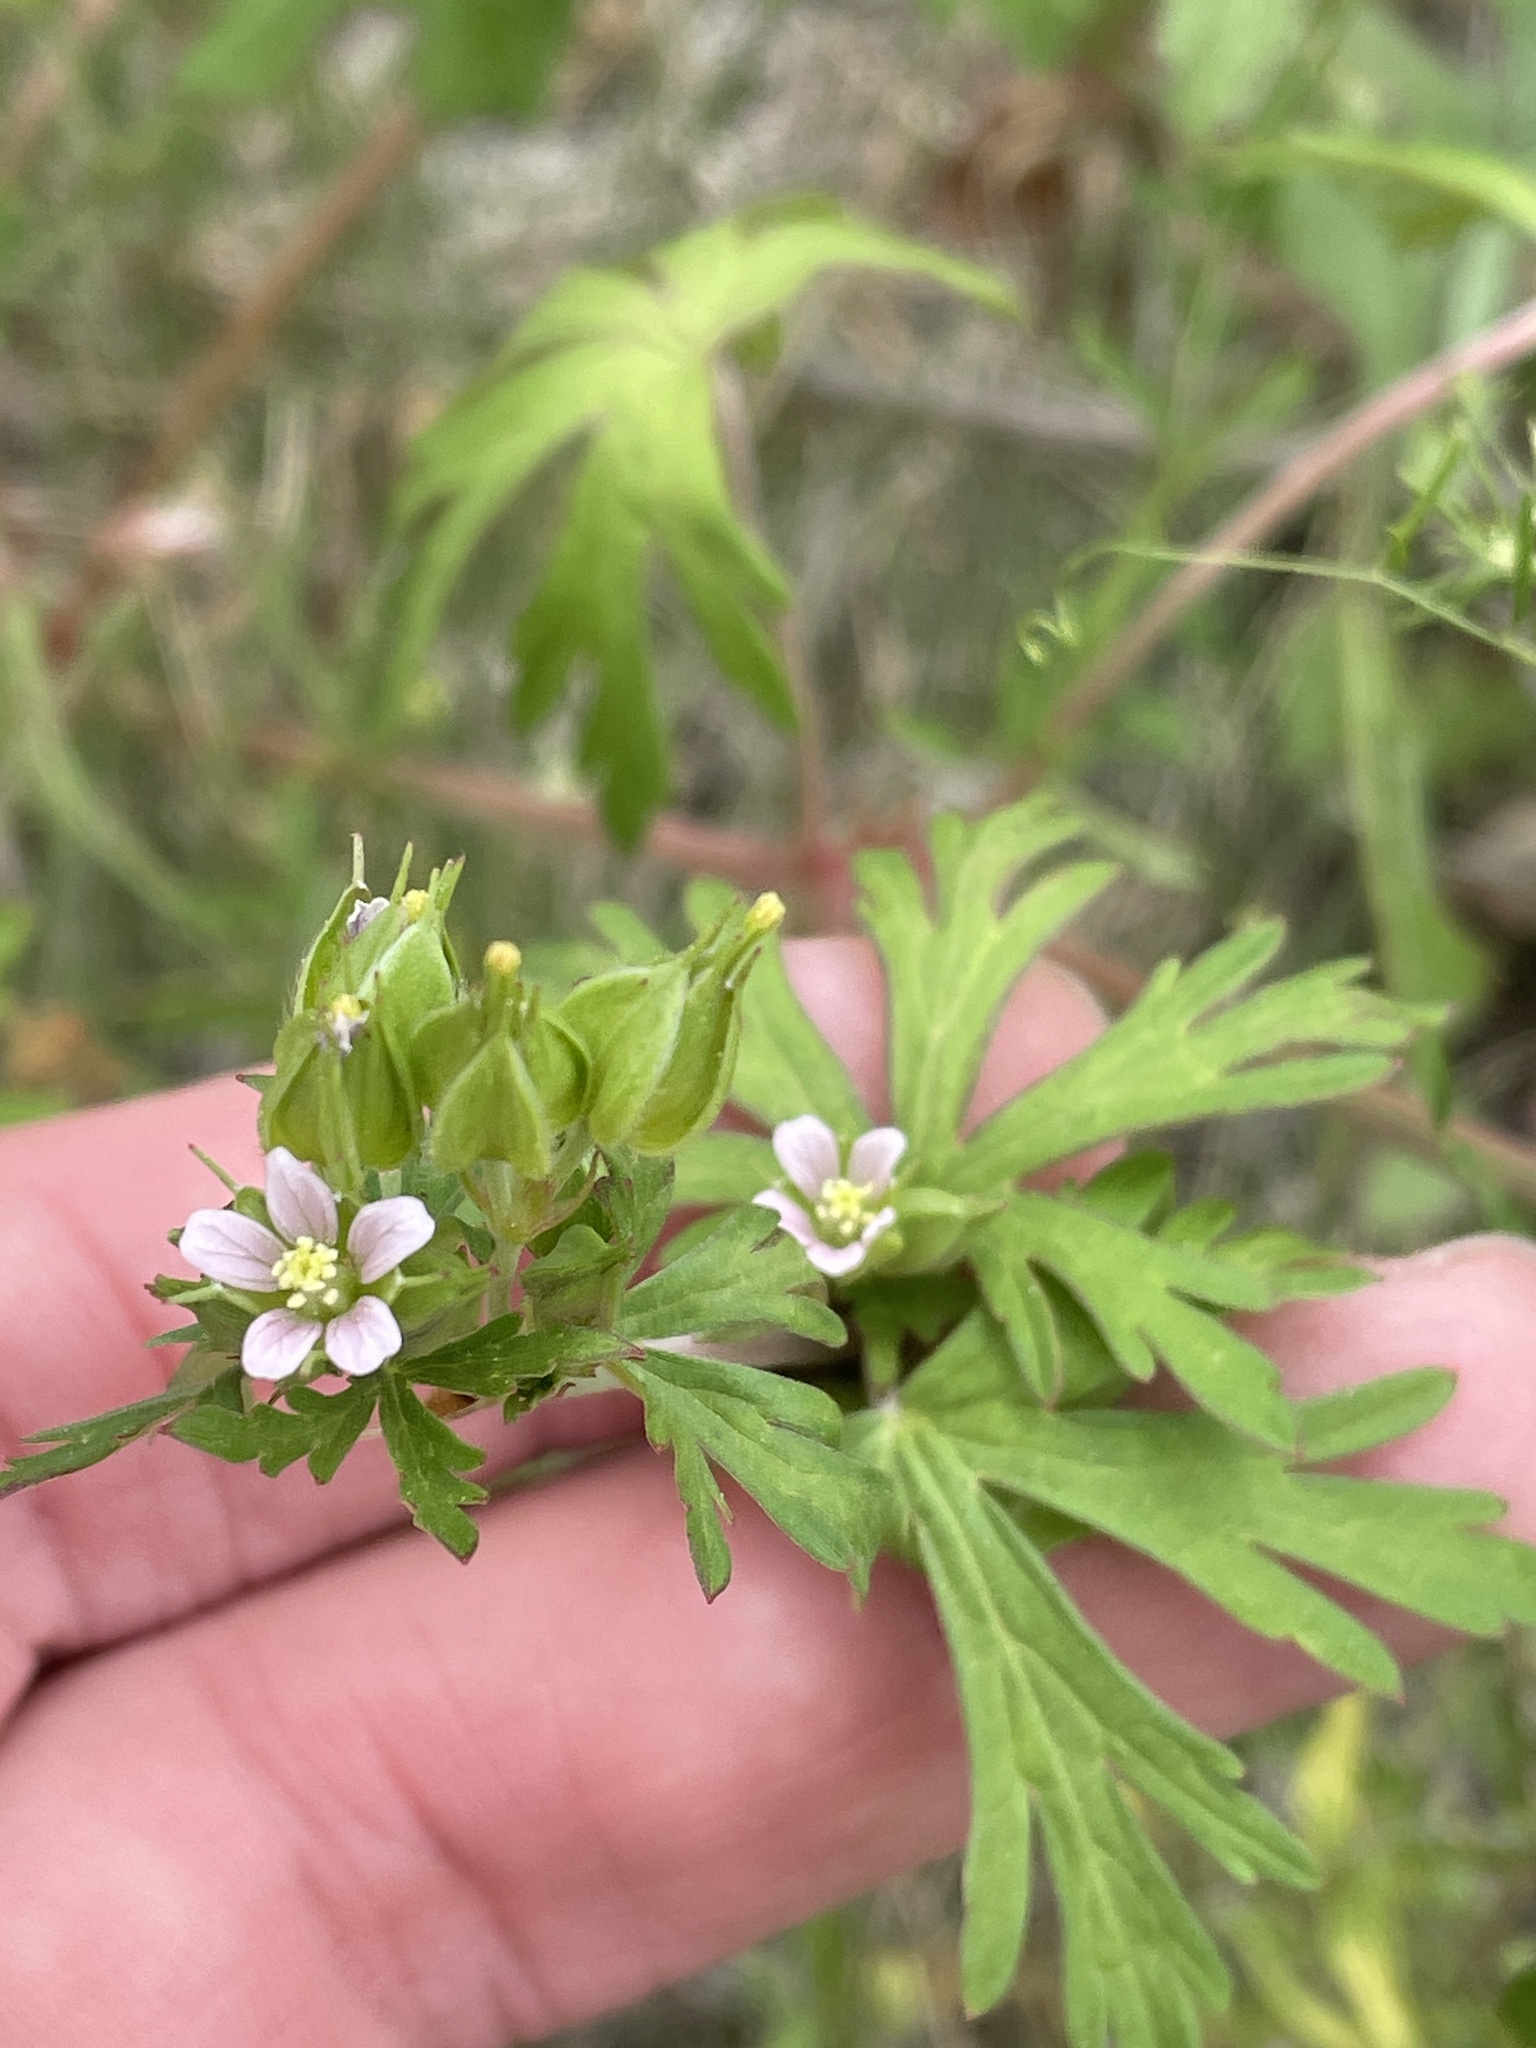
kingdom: Plantae
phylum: Tracheophyta
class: Magnoliopsida
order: Geraniales
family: Geraniaceae
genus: Geranium
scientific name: Geranium carolinianum
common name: Carolina crane's-bill
